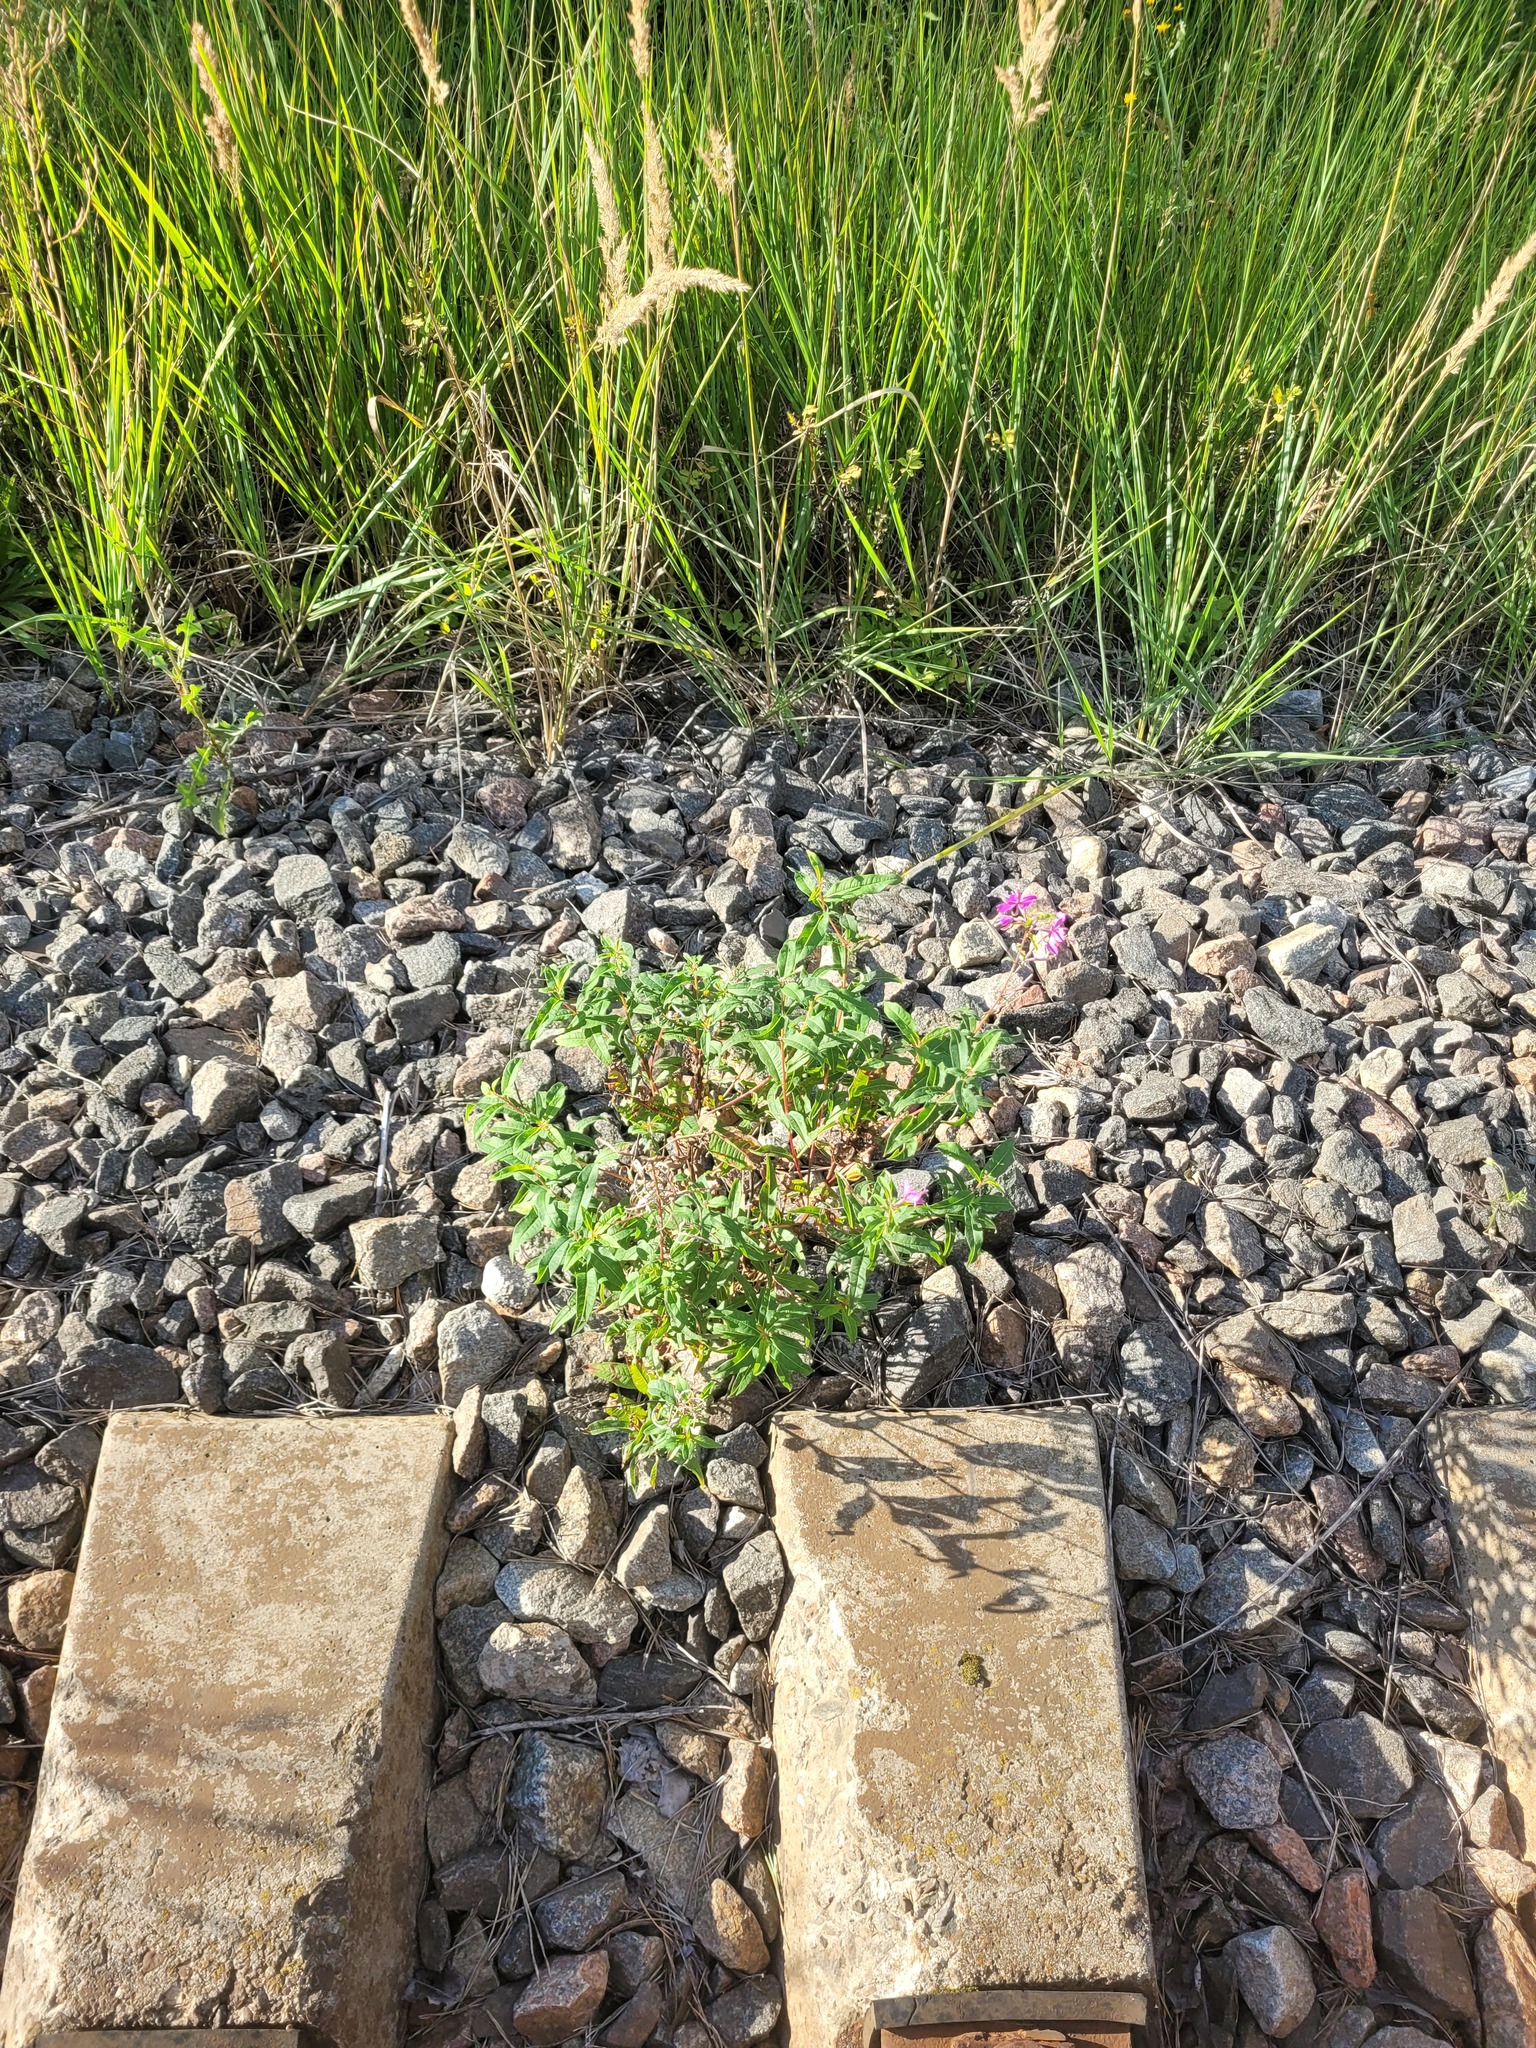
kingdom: Plantae
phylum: Tracheophyta
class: Magnoliopsida
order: Myrtales
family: Onagraceae
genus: Chamaenerion
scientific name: Chamaenerion angustifolium
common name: Fireweed
